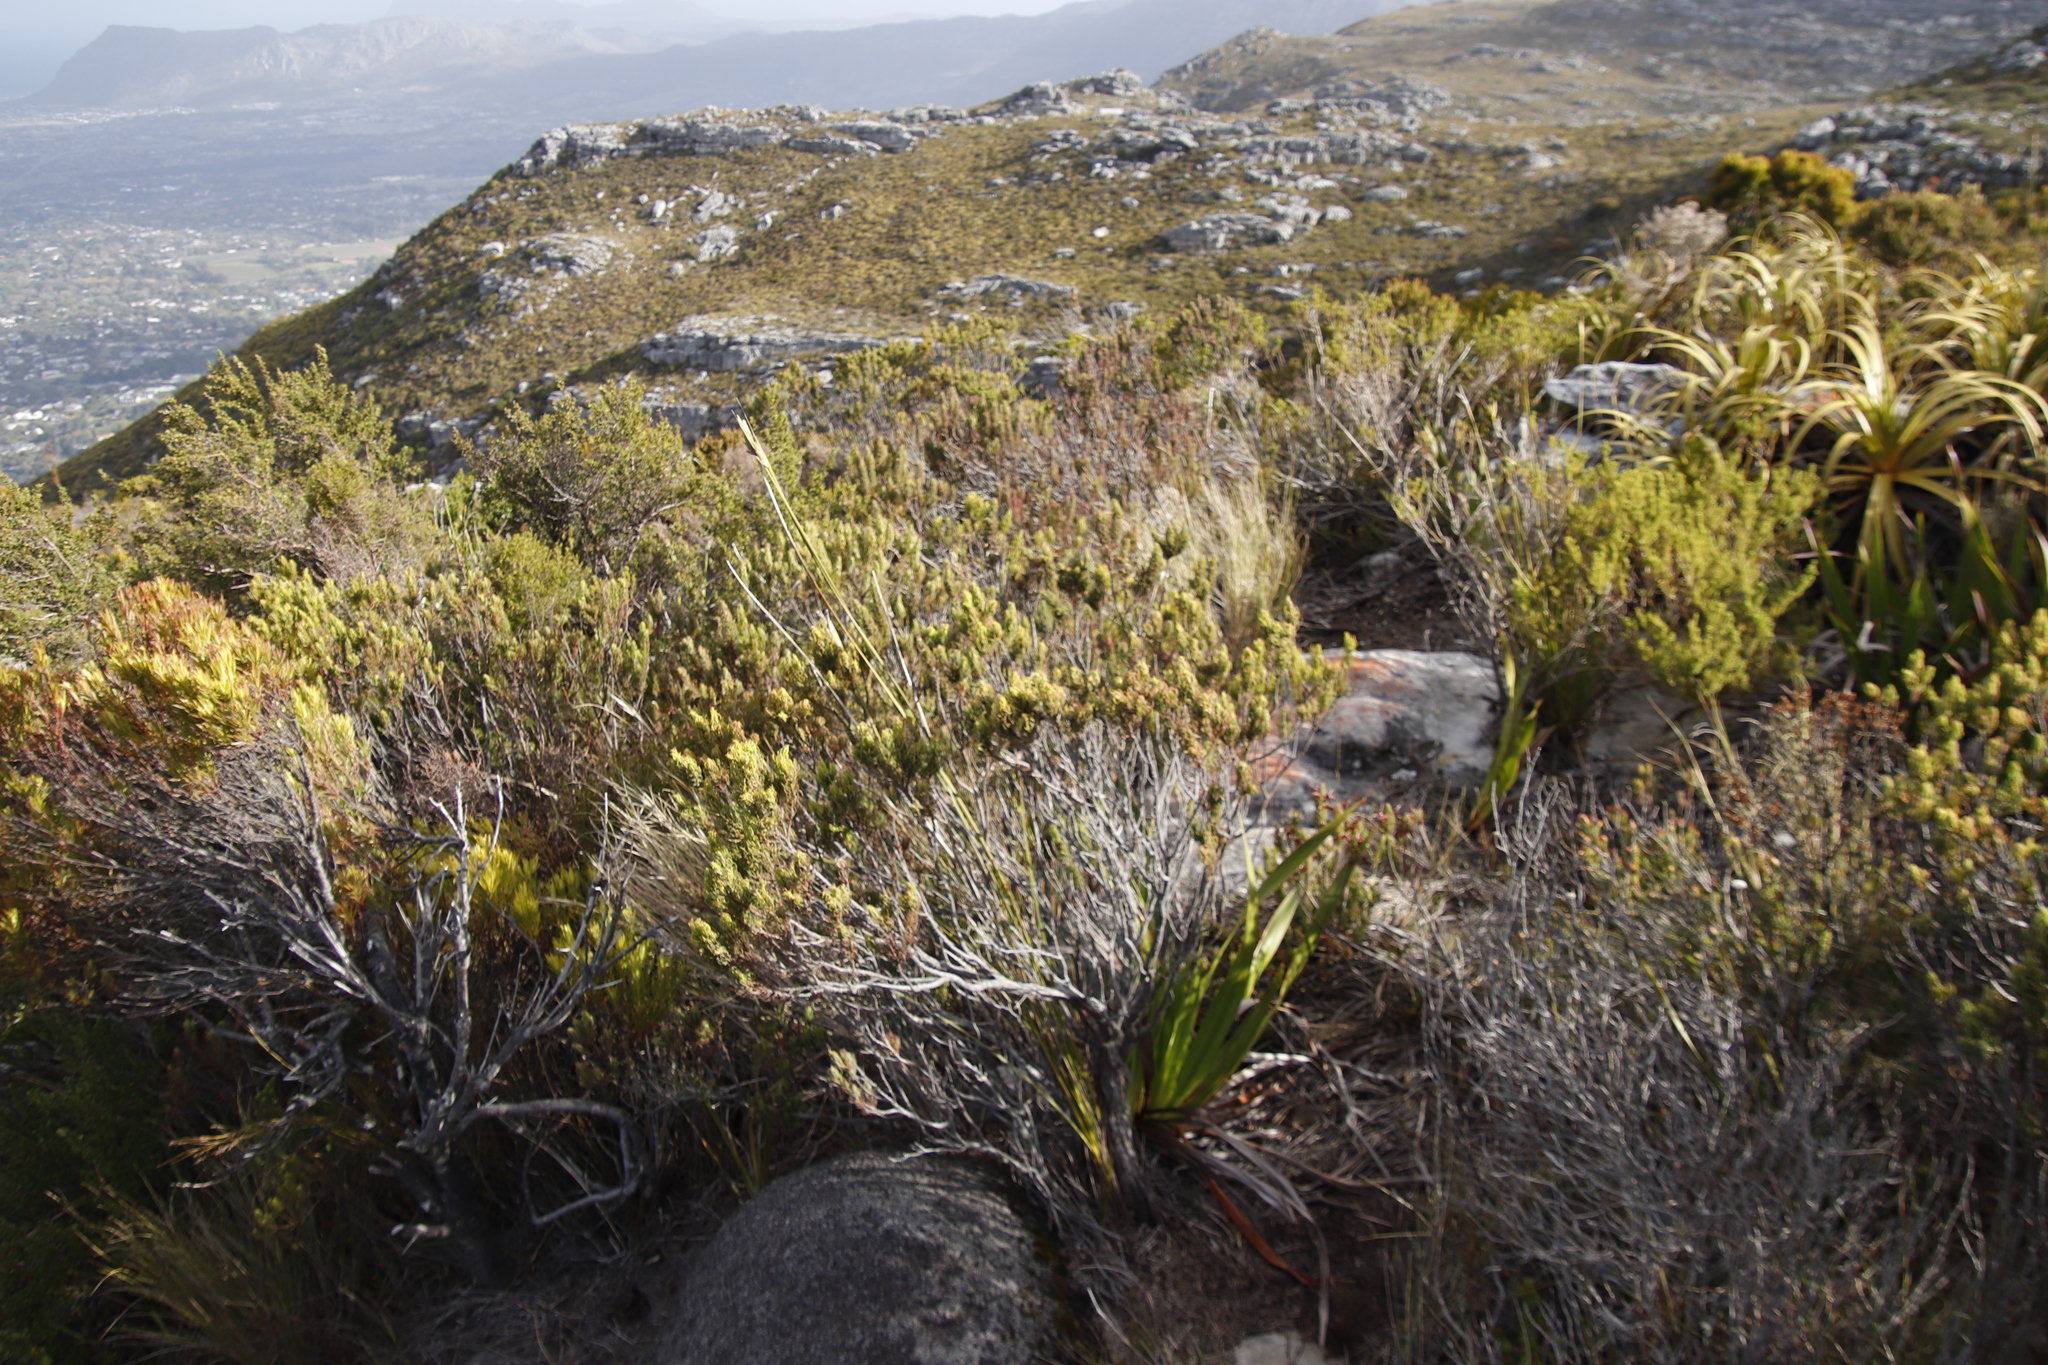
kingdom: Plantae
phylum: Tracheophyta
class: Magnoliopsida
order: Ericales
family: Ericaceae
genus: Erica
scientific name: Erica coccinea
